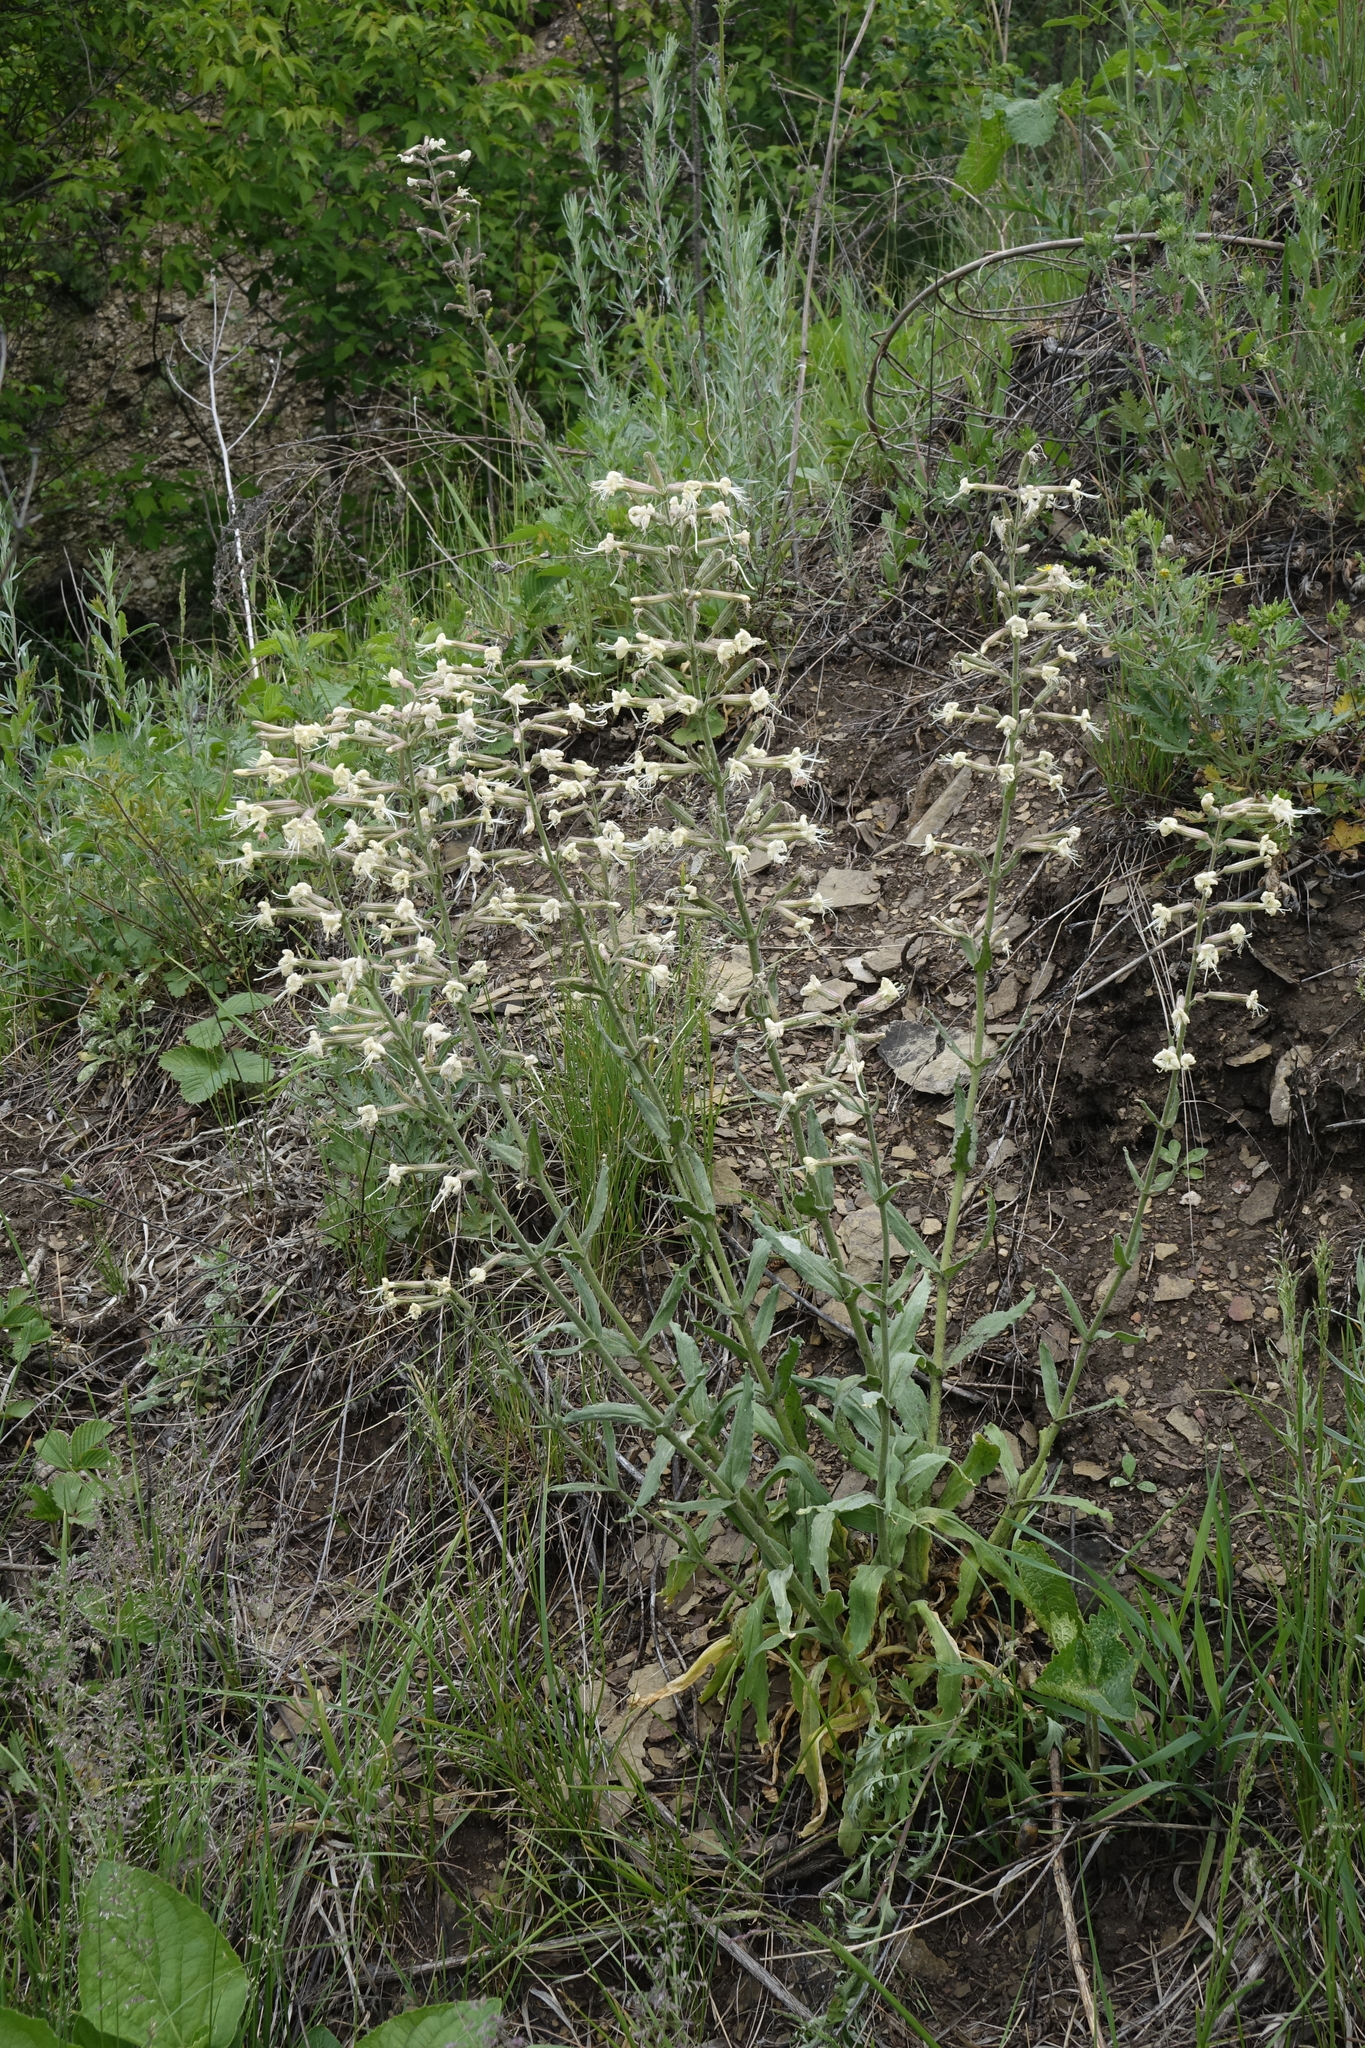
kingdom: Plantae
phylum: Tracheophyta
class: Magnoliopsida
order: Caryophyllales
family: Caryophyllaceae
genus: Silene
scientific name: Silene viscosa
